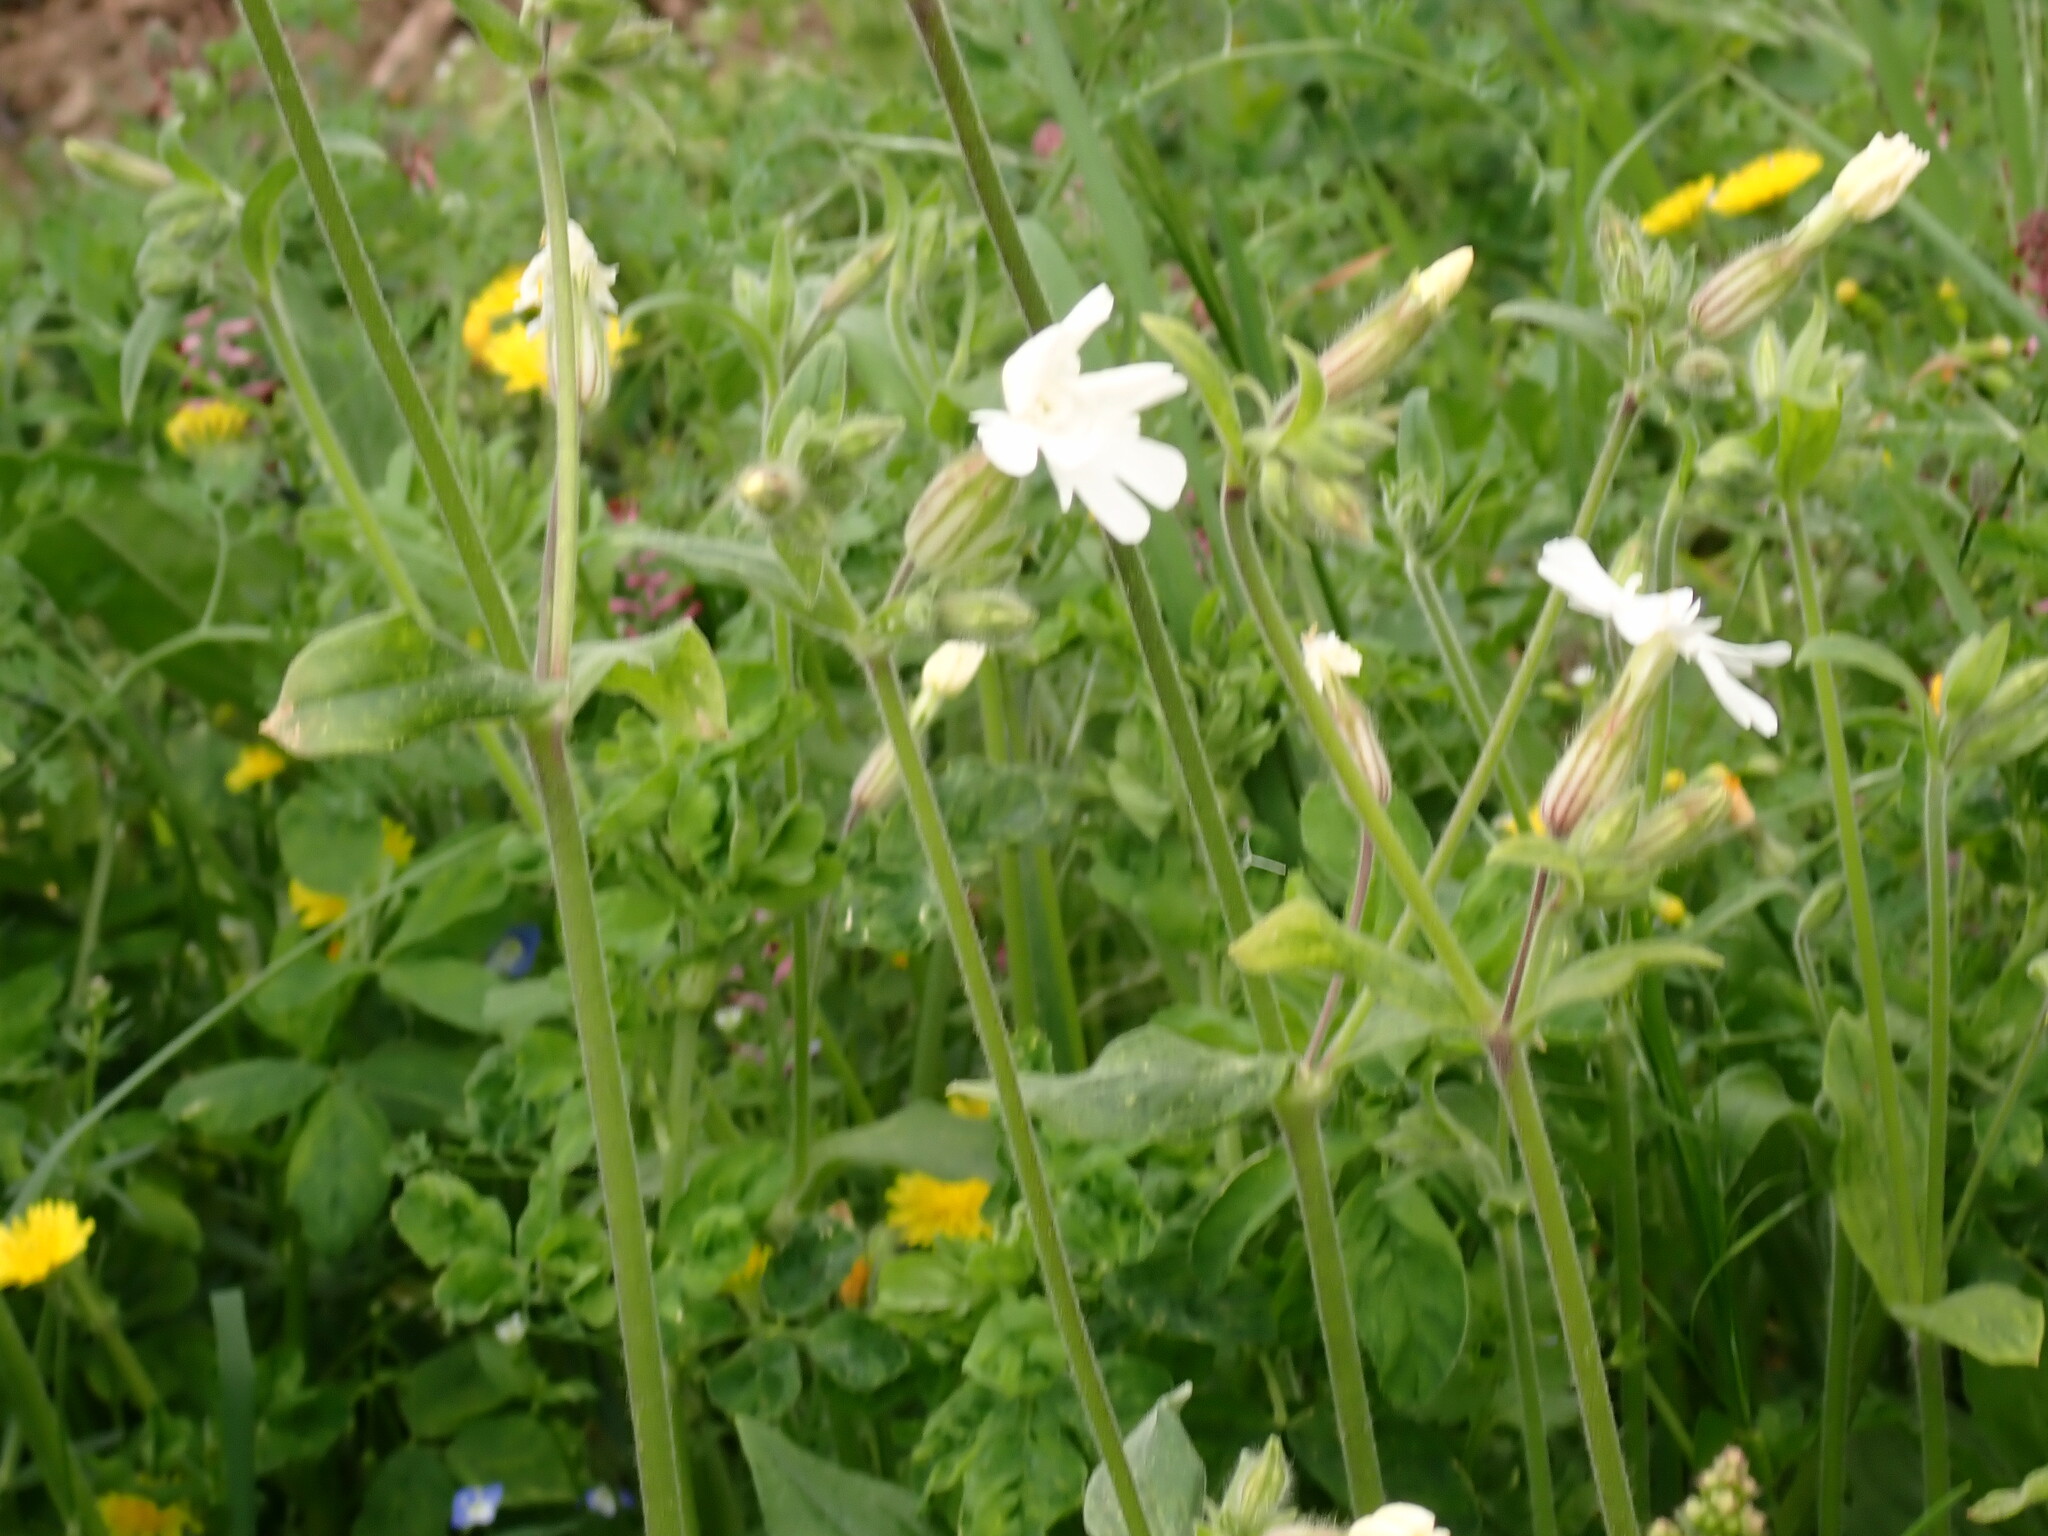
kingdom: Plantae
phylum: Tracheophyta
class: Magnoliopsida
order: Caryophyllales
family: Caryophyllaceae
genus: Silene
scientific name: Silene latifolia
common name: White campion
